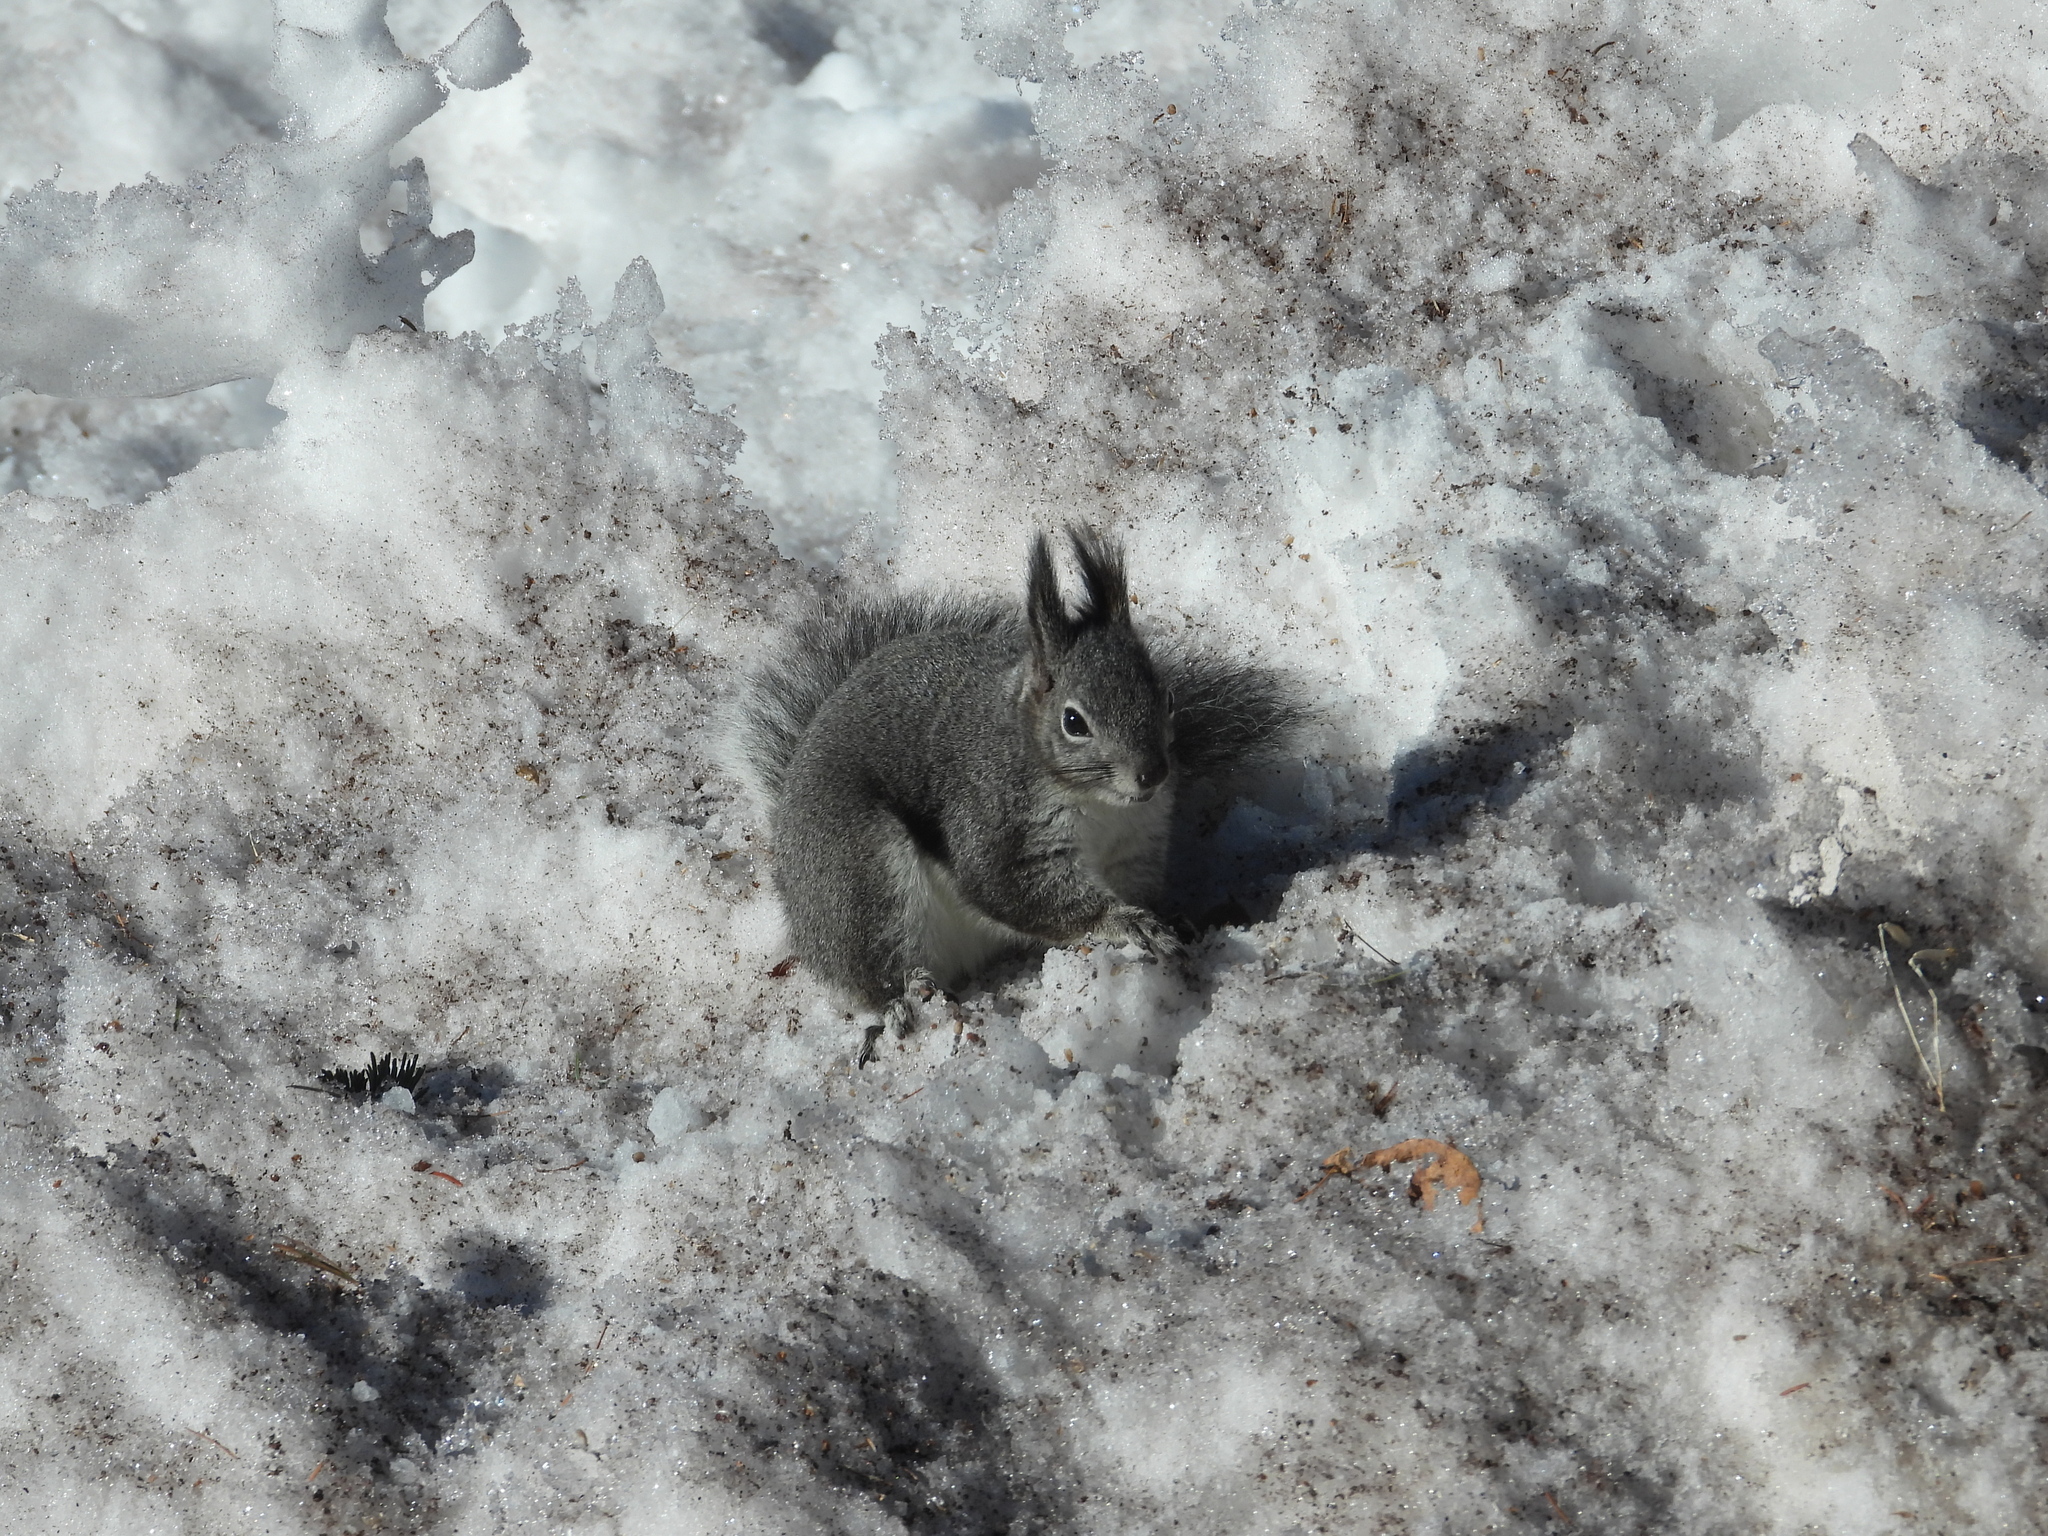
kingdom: Animalia
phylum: Chordata
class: Mammalia
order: Rodentia
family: Sciuridae
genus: Sciurus
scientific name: Sciurus aberti
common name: Abert's squirrel
